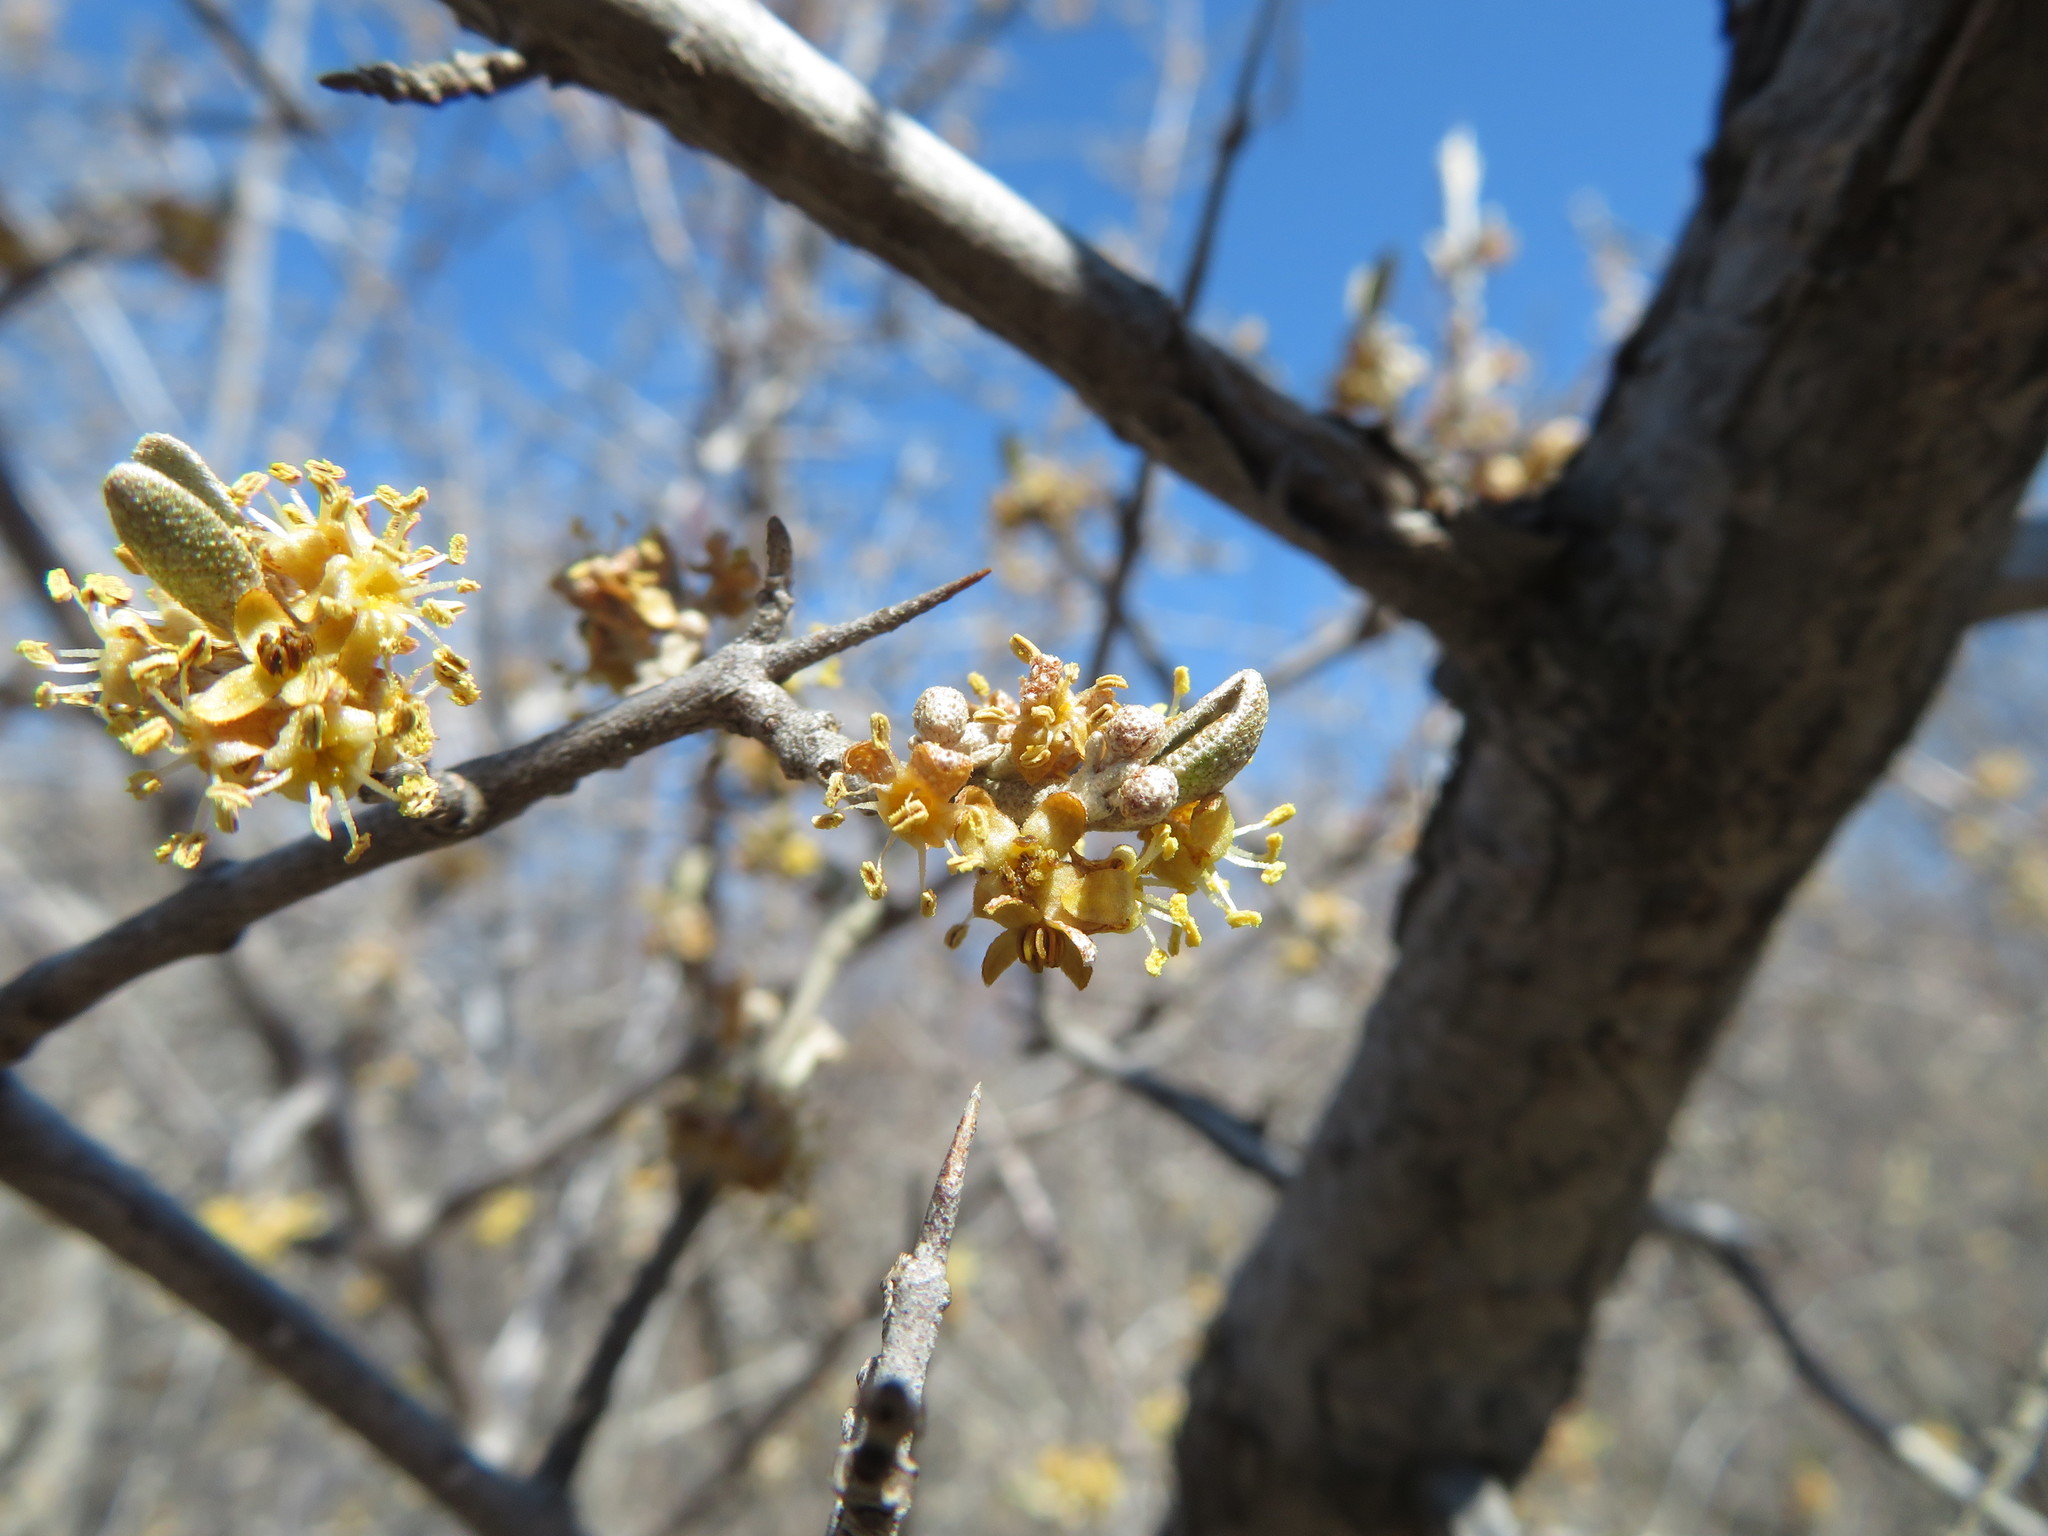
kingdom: Plantae
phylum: Tracheophyta
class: Magnoliopsida
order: Rosales
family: Elaeagnaceae
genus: Shepherdia
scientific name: Shepherdia argentea
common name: Silver buffaloberry
